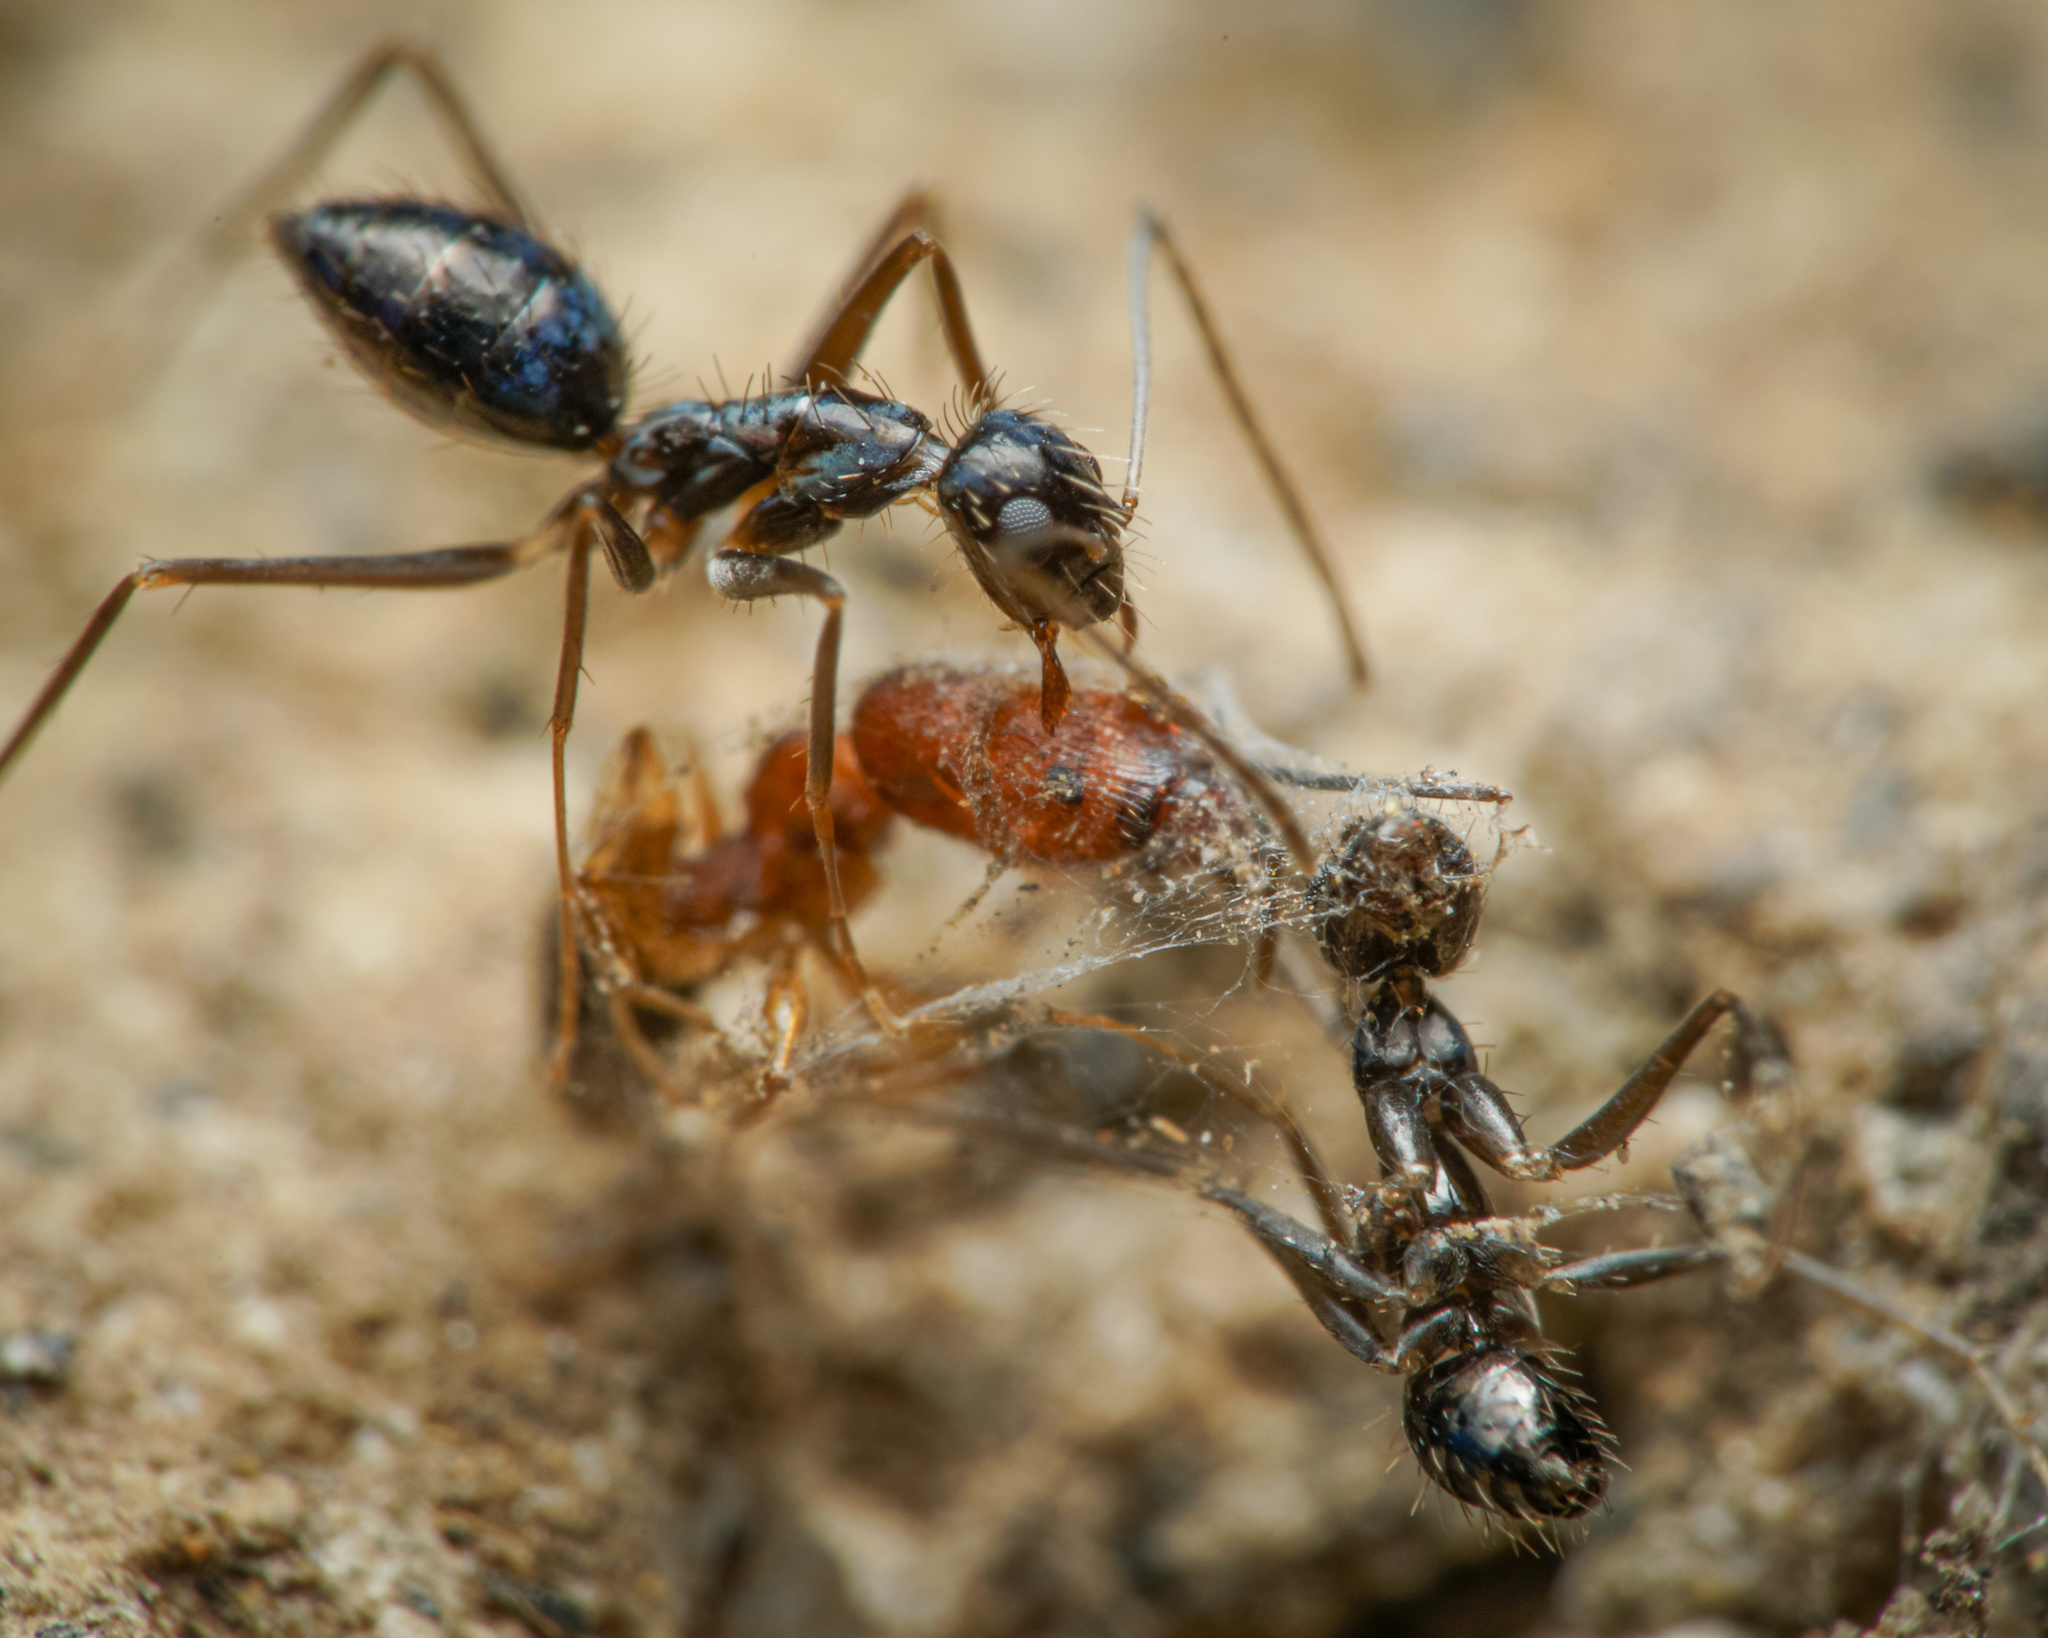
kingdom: Animalia
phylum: Arthropoda
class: Insecta
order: Hymenoptera
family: Formicidae
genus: Paratrechina
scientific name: Paratrechina longicornis
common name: Longhorned crazy ant
